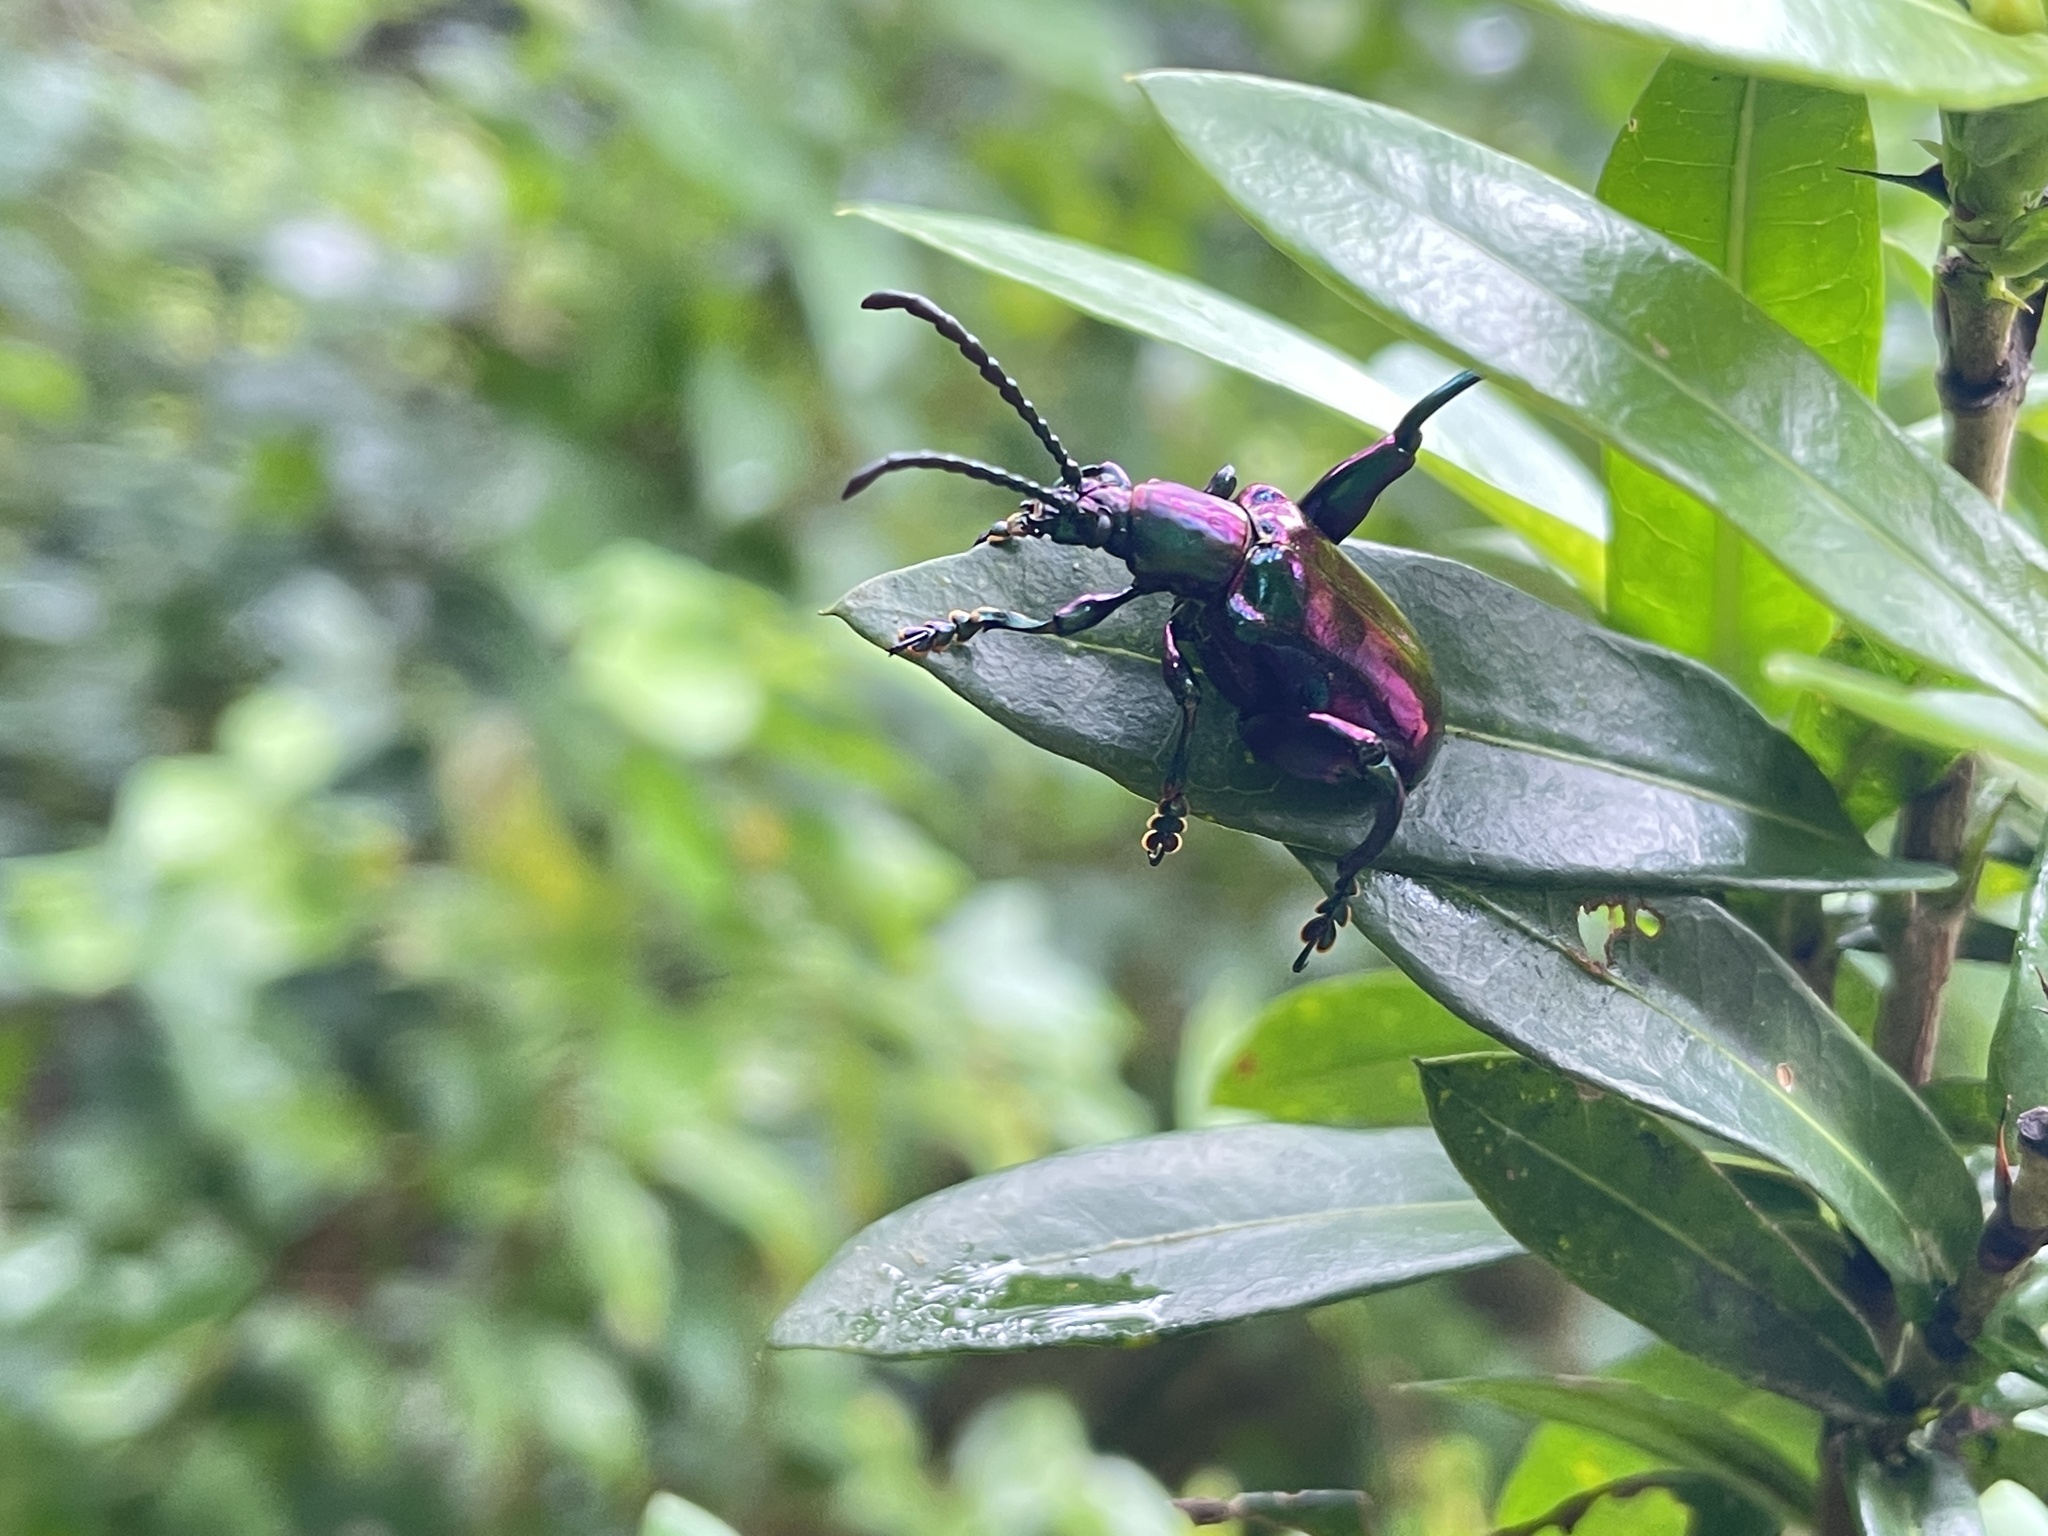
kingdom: Animalia
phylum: Arthropoda
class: Insecta
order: Coleoptera
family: Chrysomelidae
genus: Sagra
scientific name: Sagra femorata
